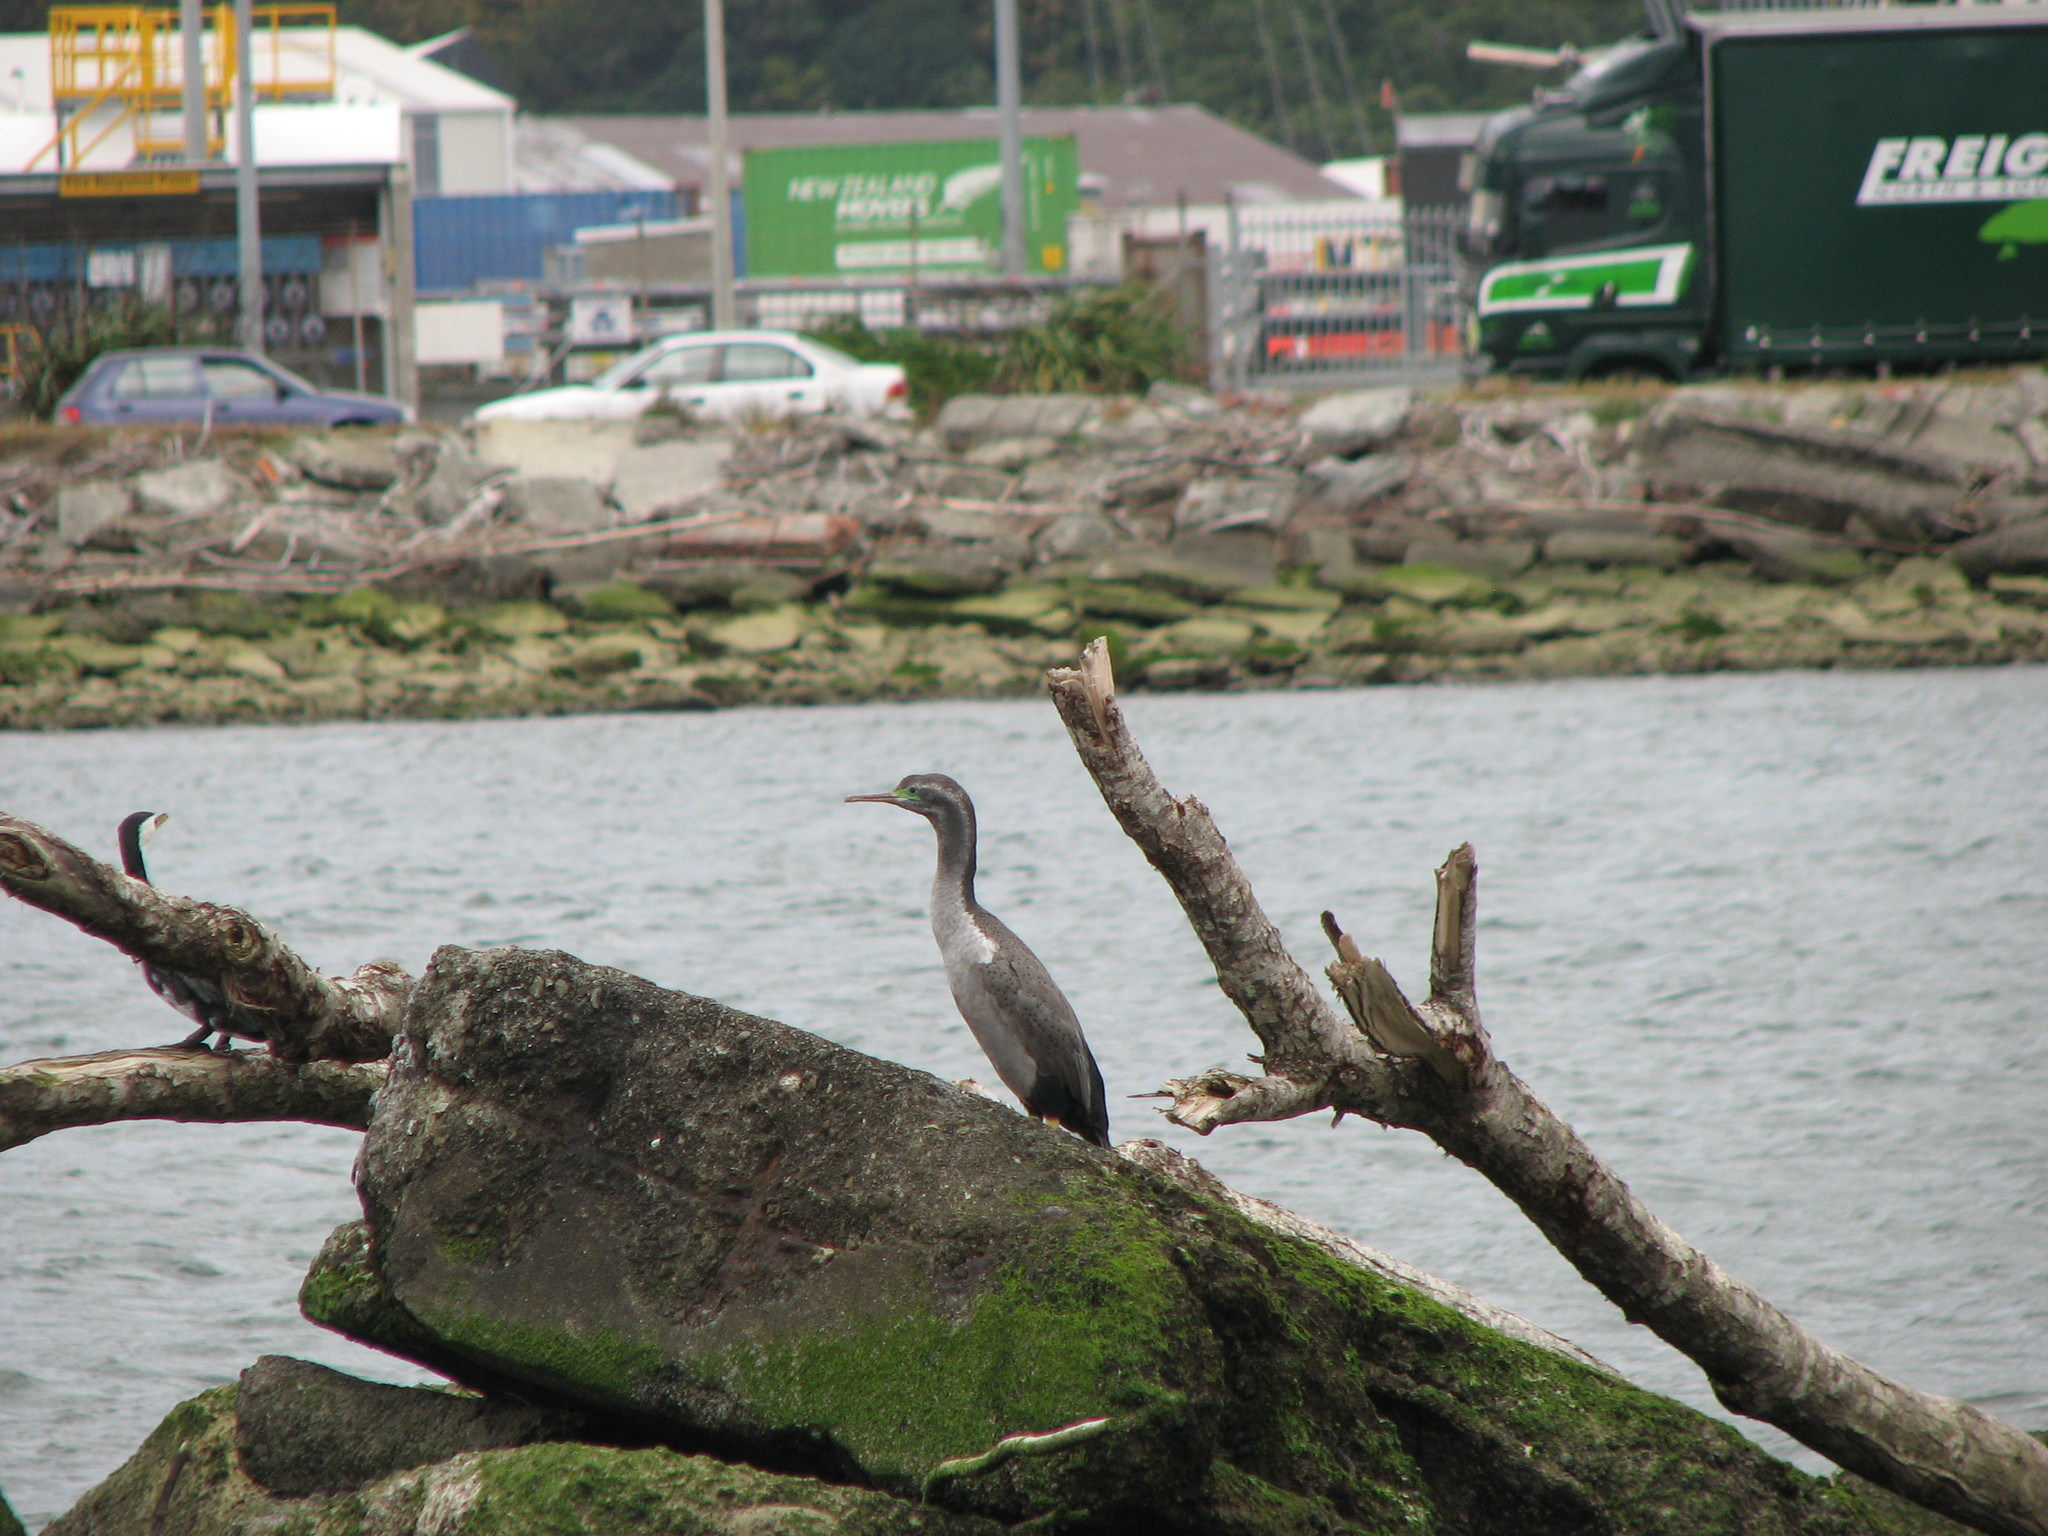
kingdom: Animalia
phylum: Chordata
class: Aves
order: Suliformes
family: Phalacrocoracidae
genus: Phalacrocorax
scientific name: Phalacrocorax punctatus
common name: Spotted shag
